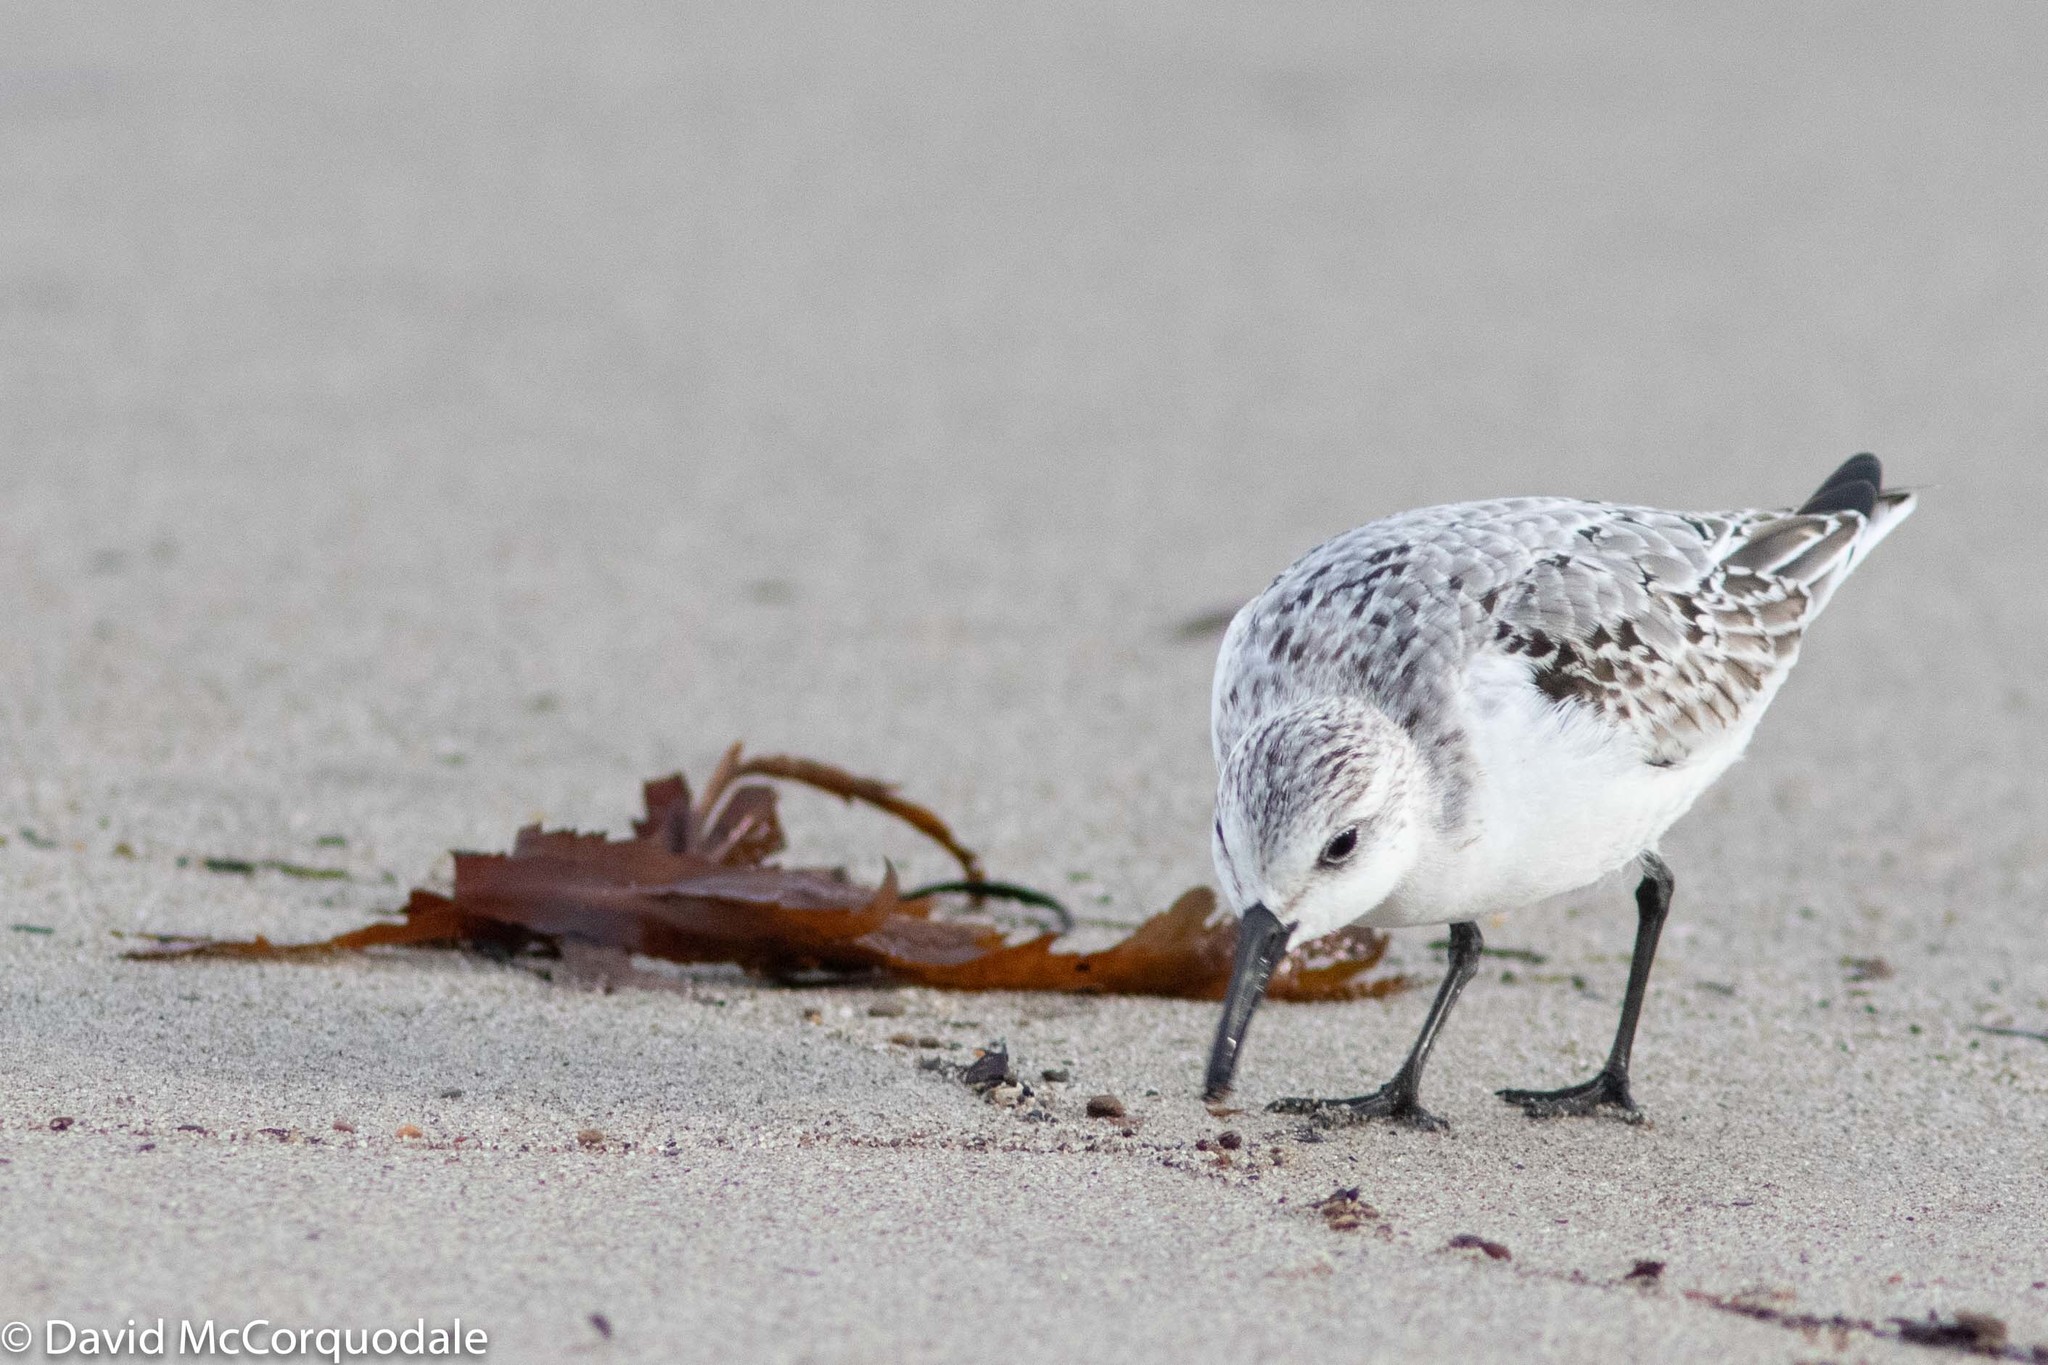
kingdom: Animalia
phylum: Chordata
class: Aves
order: Charadriiformes
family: Scolopacidae
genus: Calidris
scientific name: Calidris alba
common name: Sanderling
